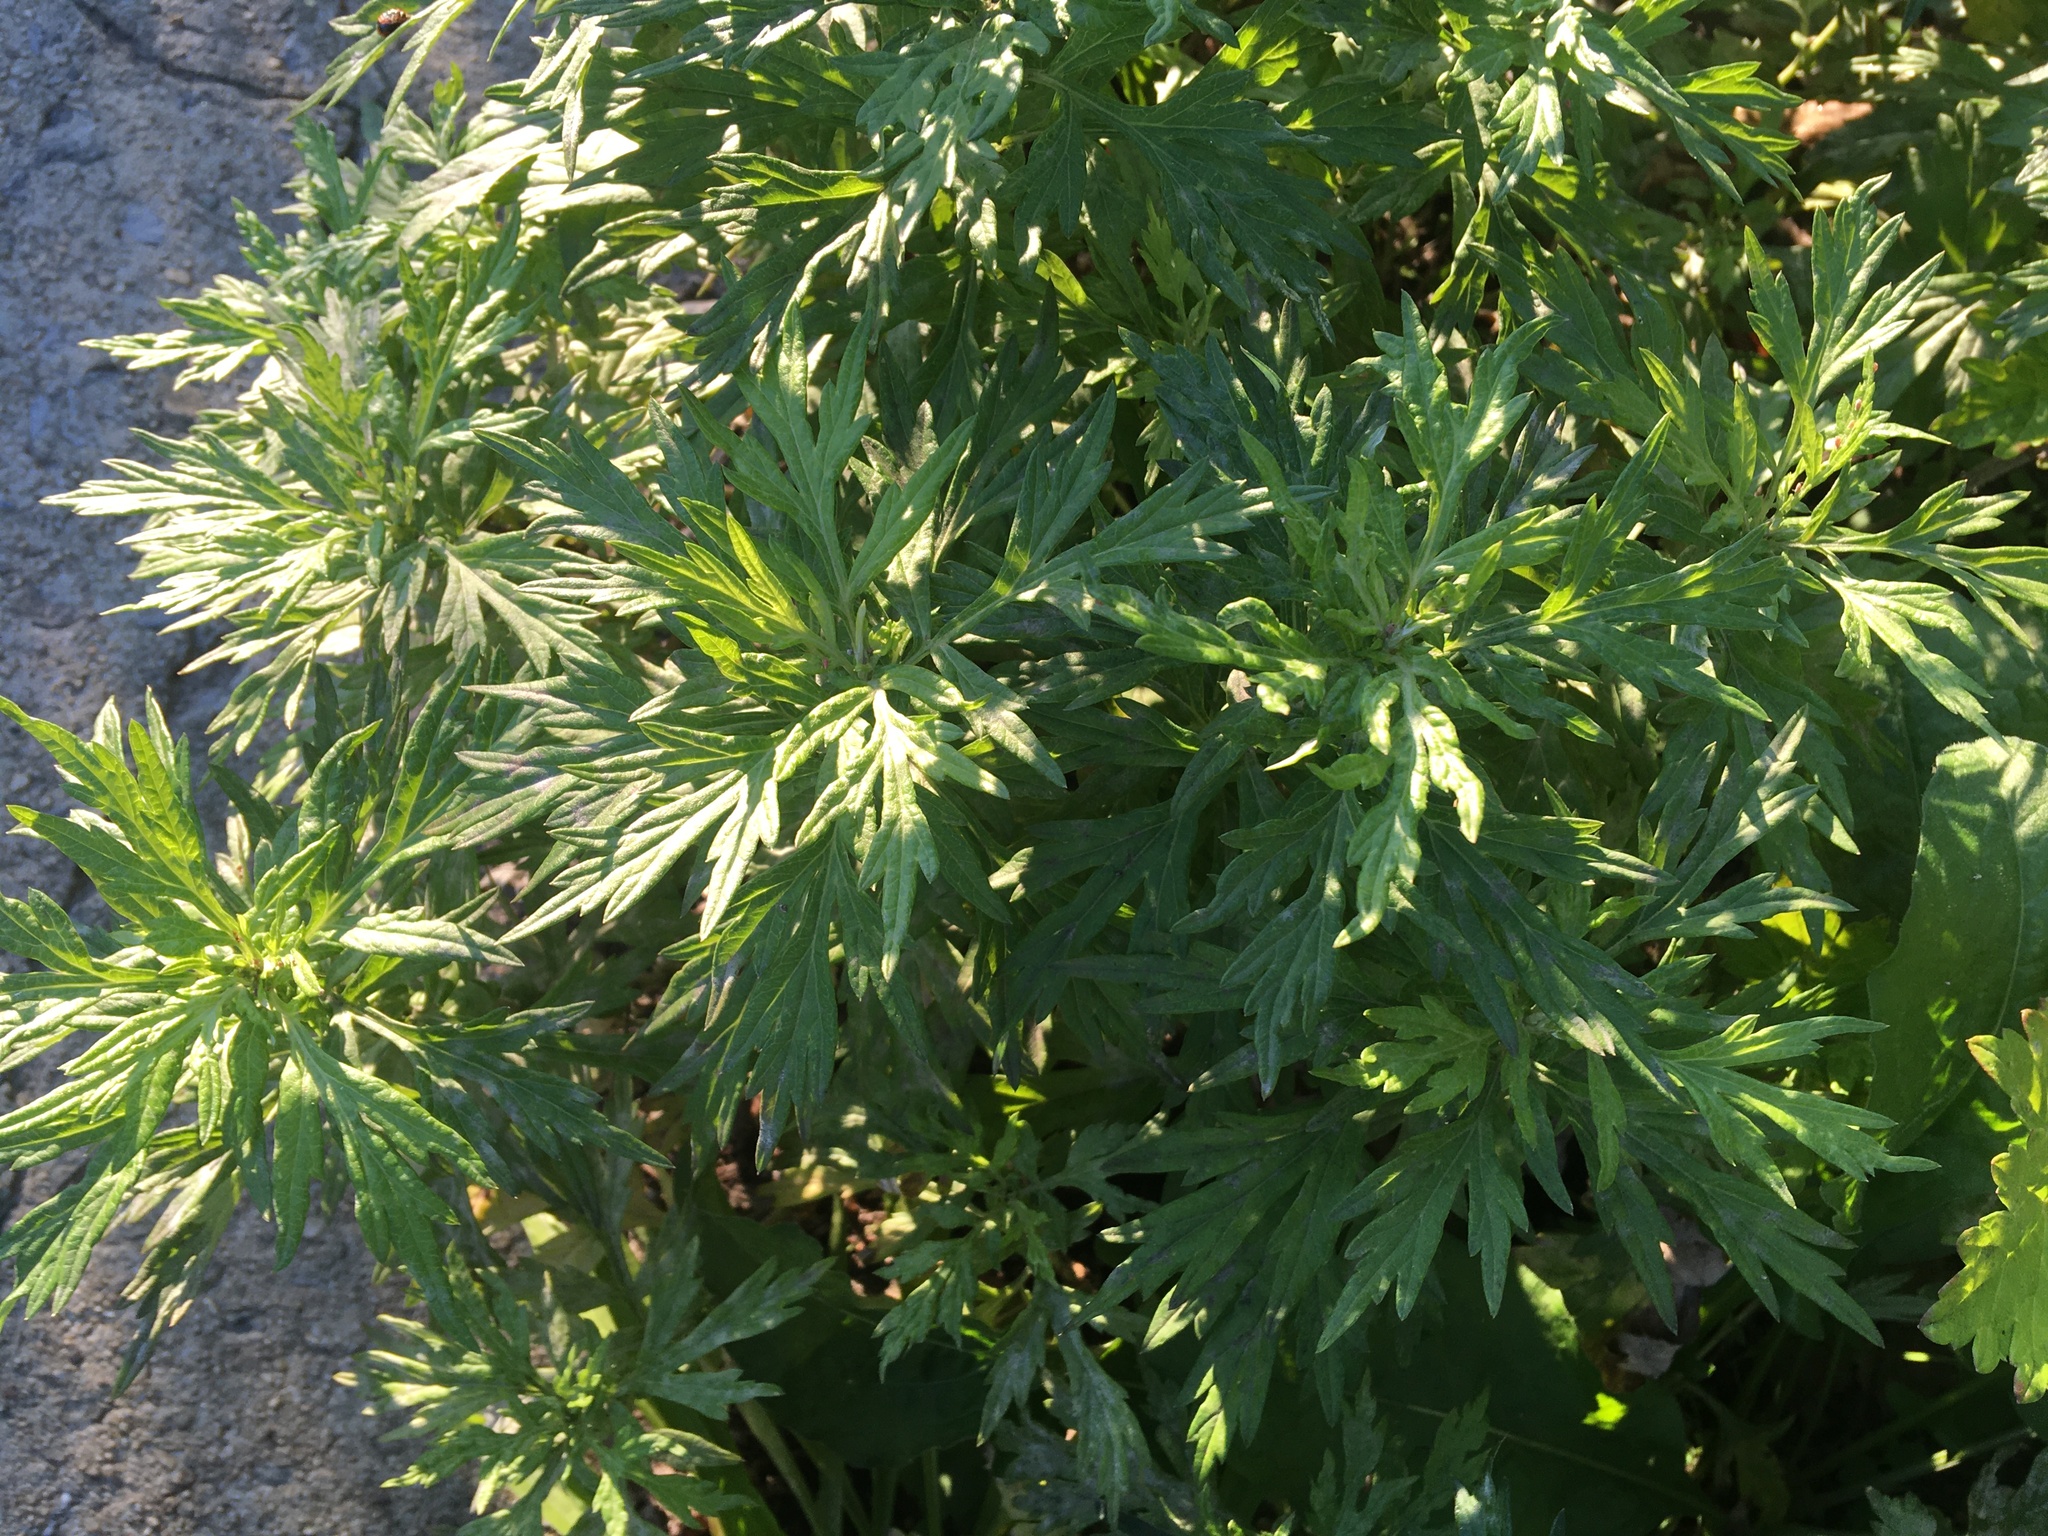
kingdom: Plantae
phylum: Tracheophyta
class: Magnoliopsida
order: Asterales
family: Asteraceae
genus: Artemisia
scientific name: Artemisia vulgaris
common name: Mugwort
